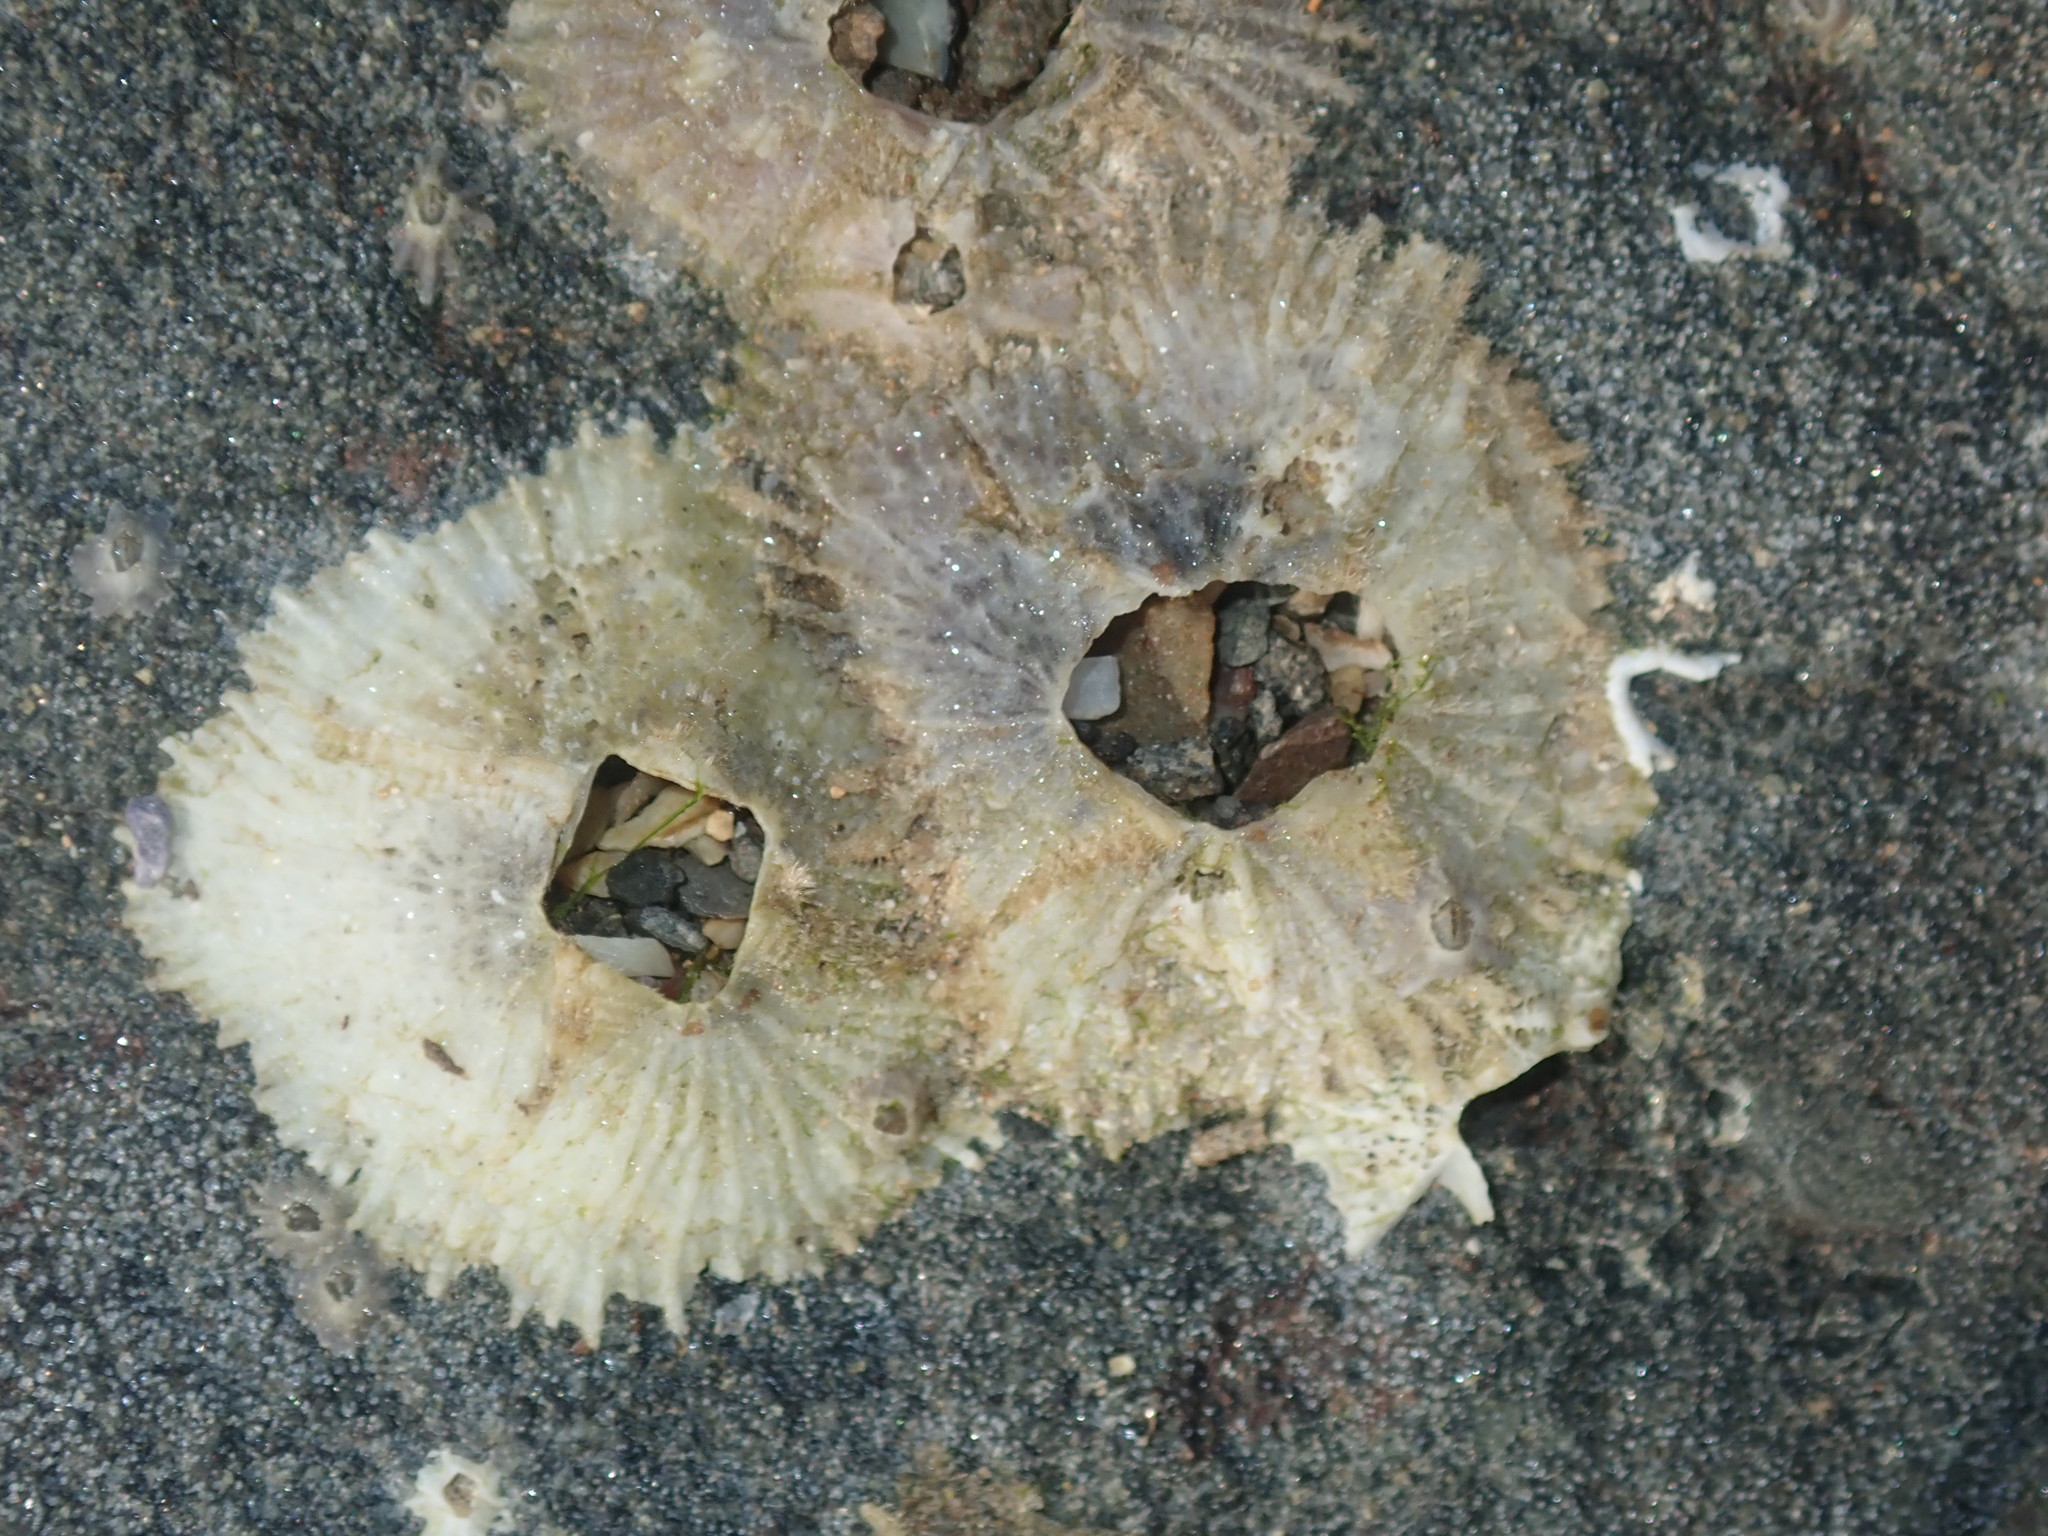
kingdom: Animalia
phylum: Arthropoda
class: Maxillopoda
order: Sessilia
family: Tetraclitidae
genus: Tetraclitella
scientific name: Tetraclitella purpurascens
